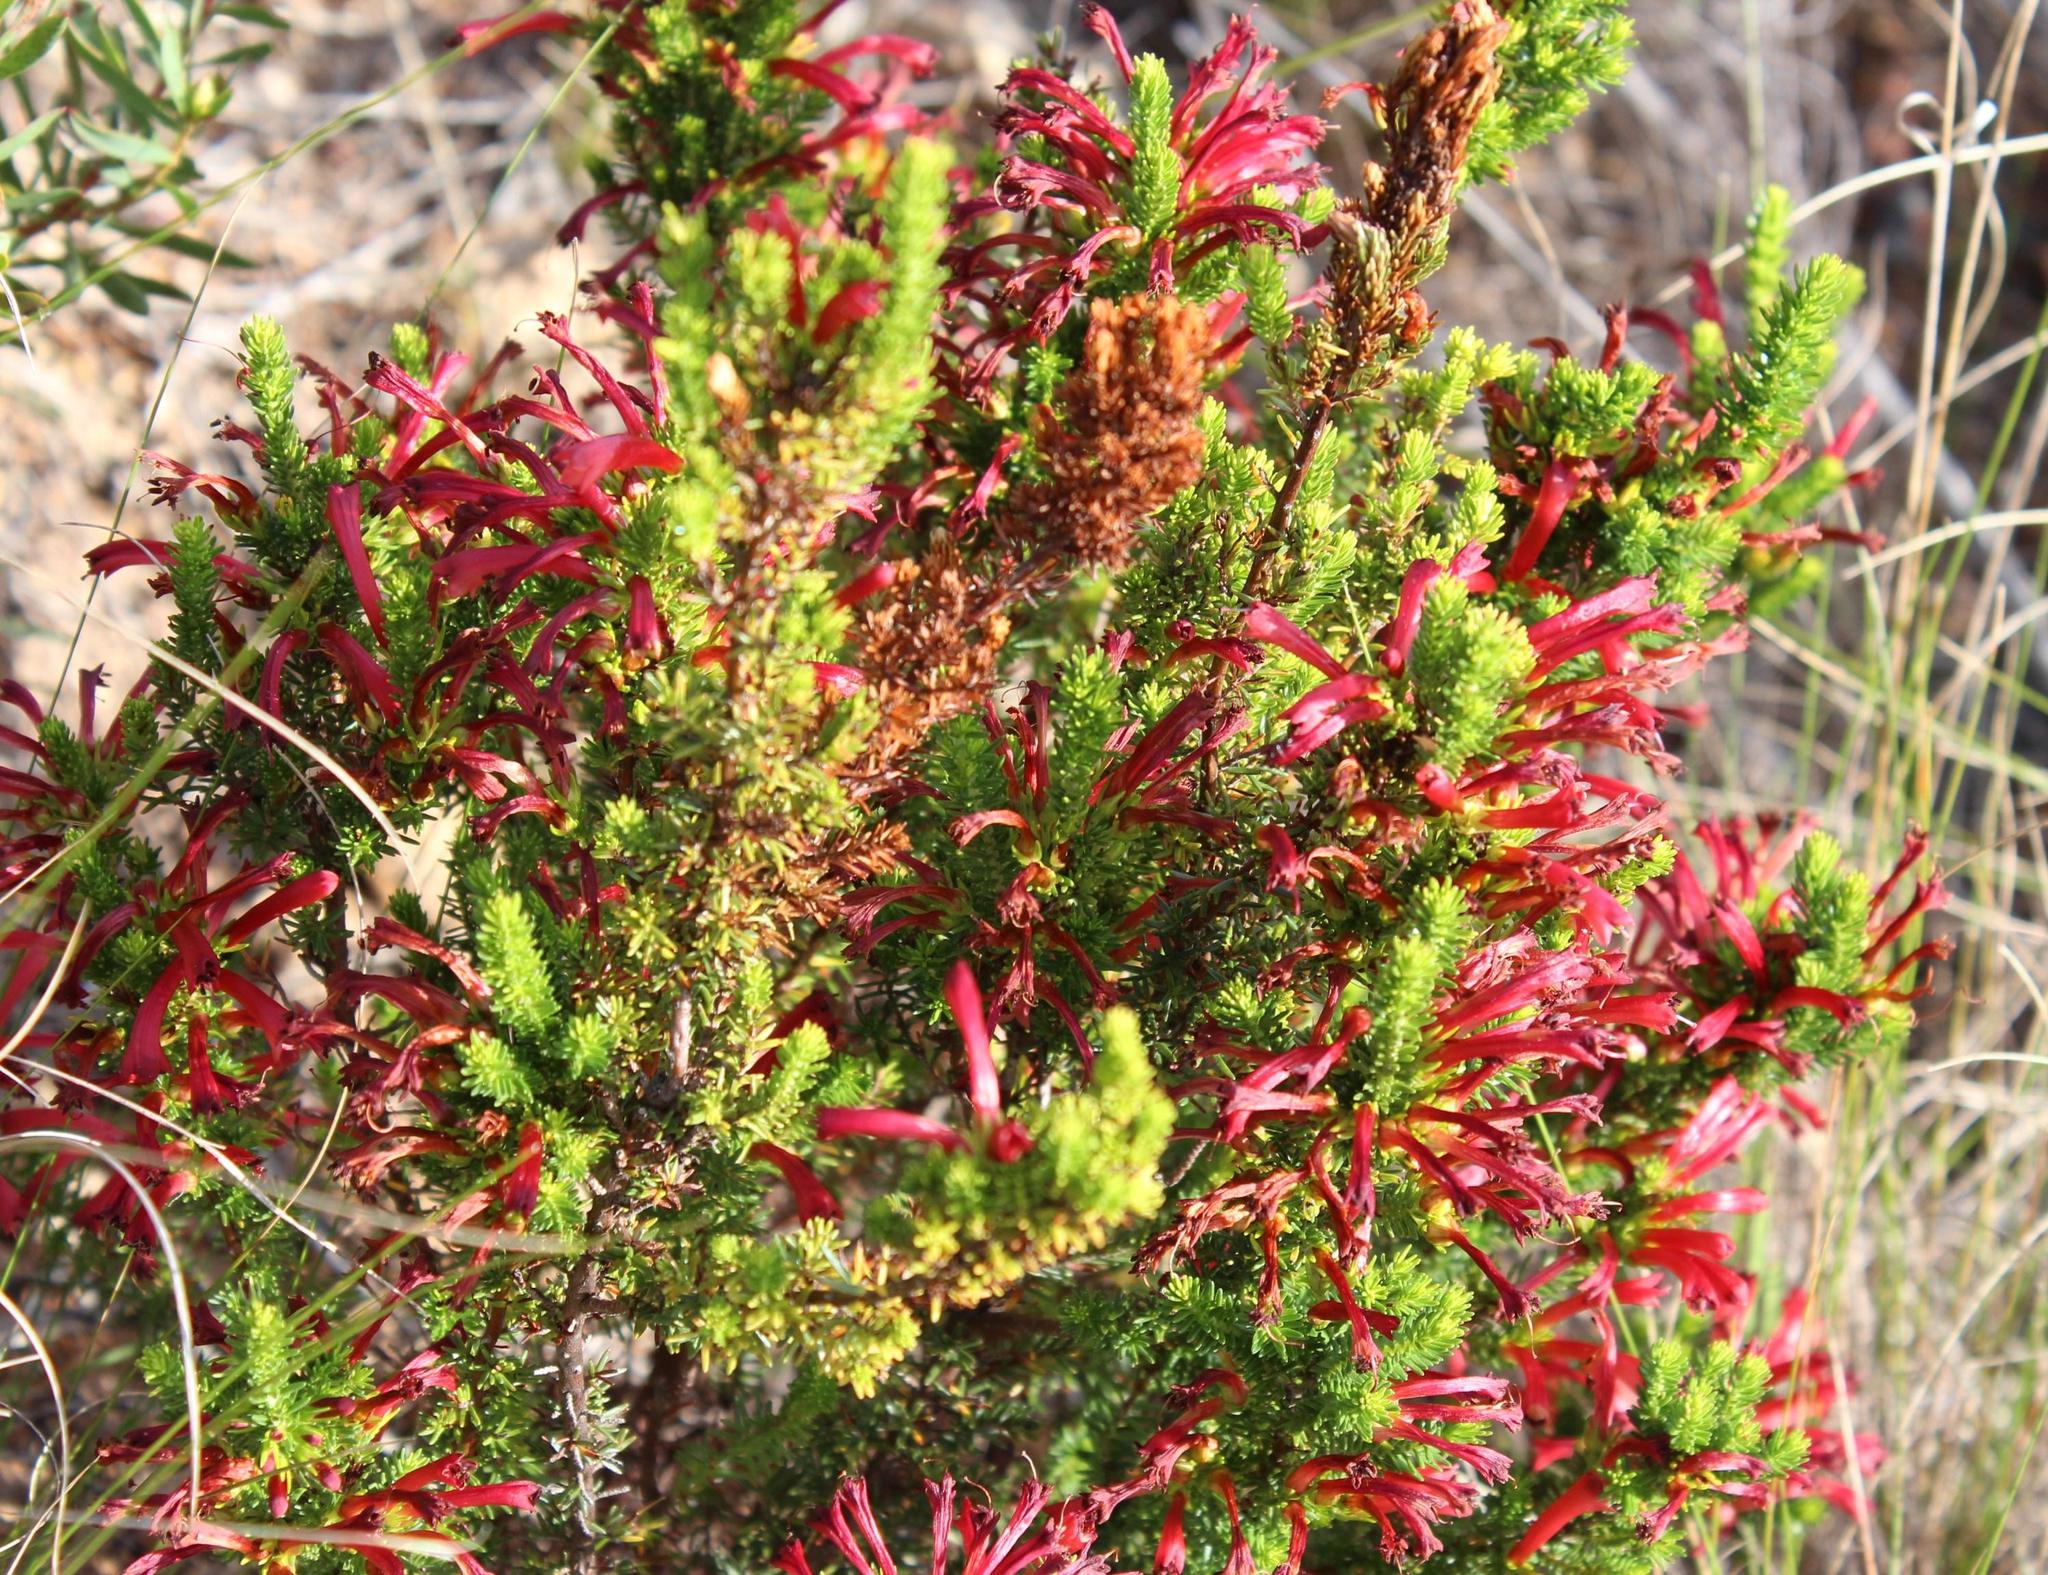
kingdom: Plantae
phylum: Tracheophyta
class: Magnoliopsida
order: Ericales
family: Ericaceae
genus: Erica
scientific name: Erica cruenta
